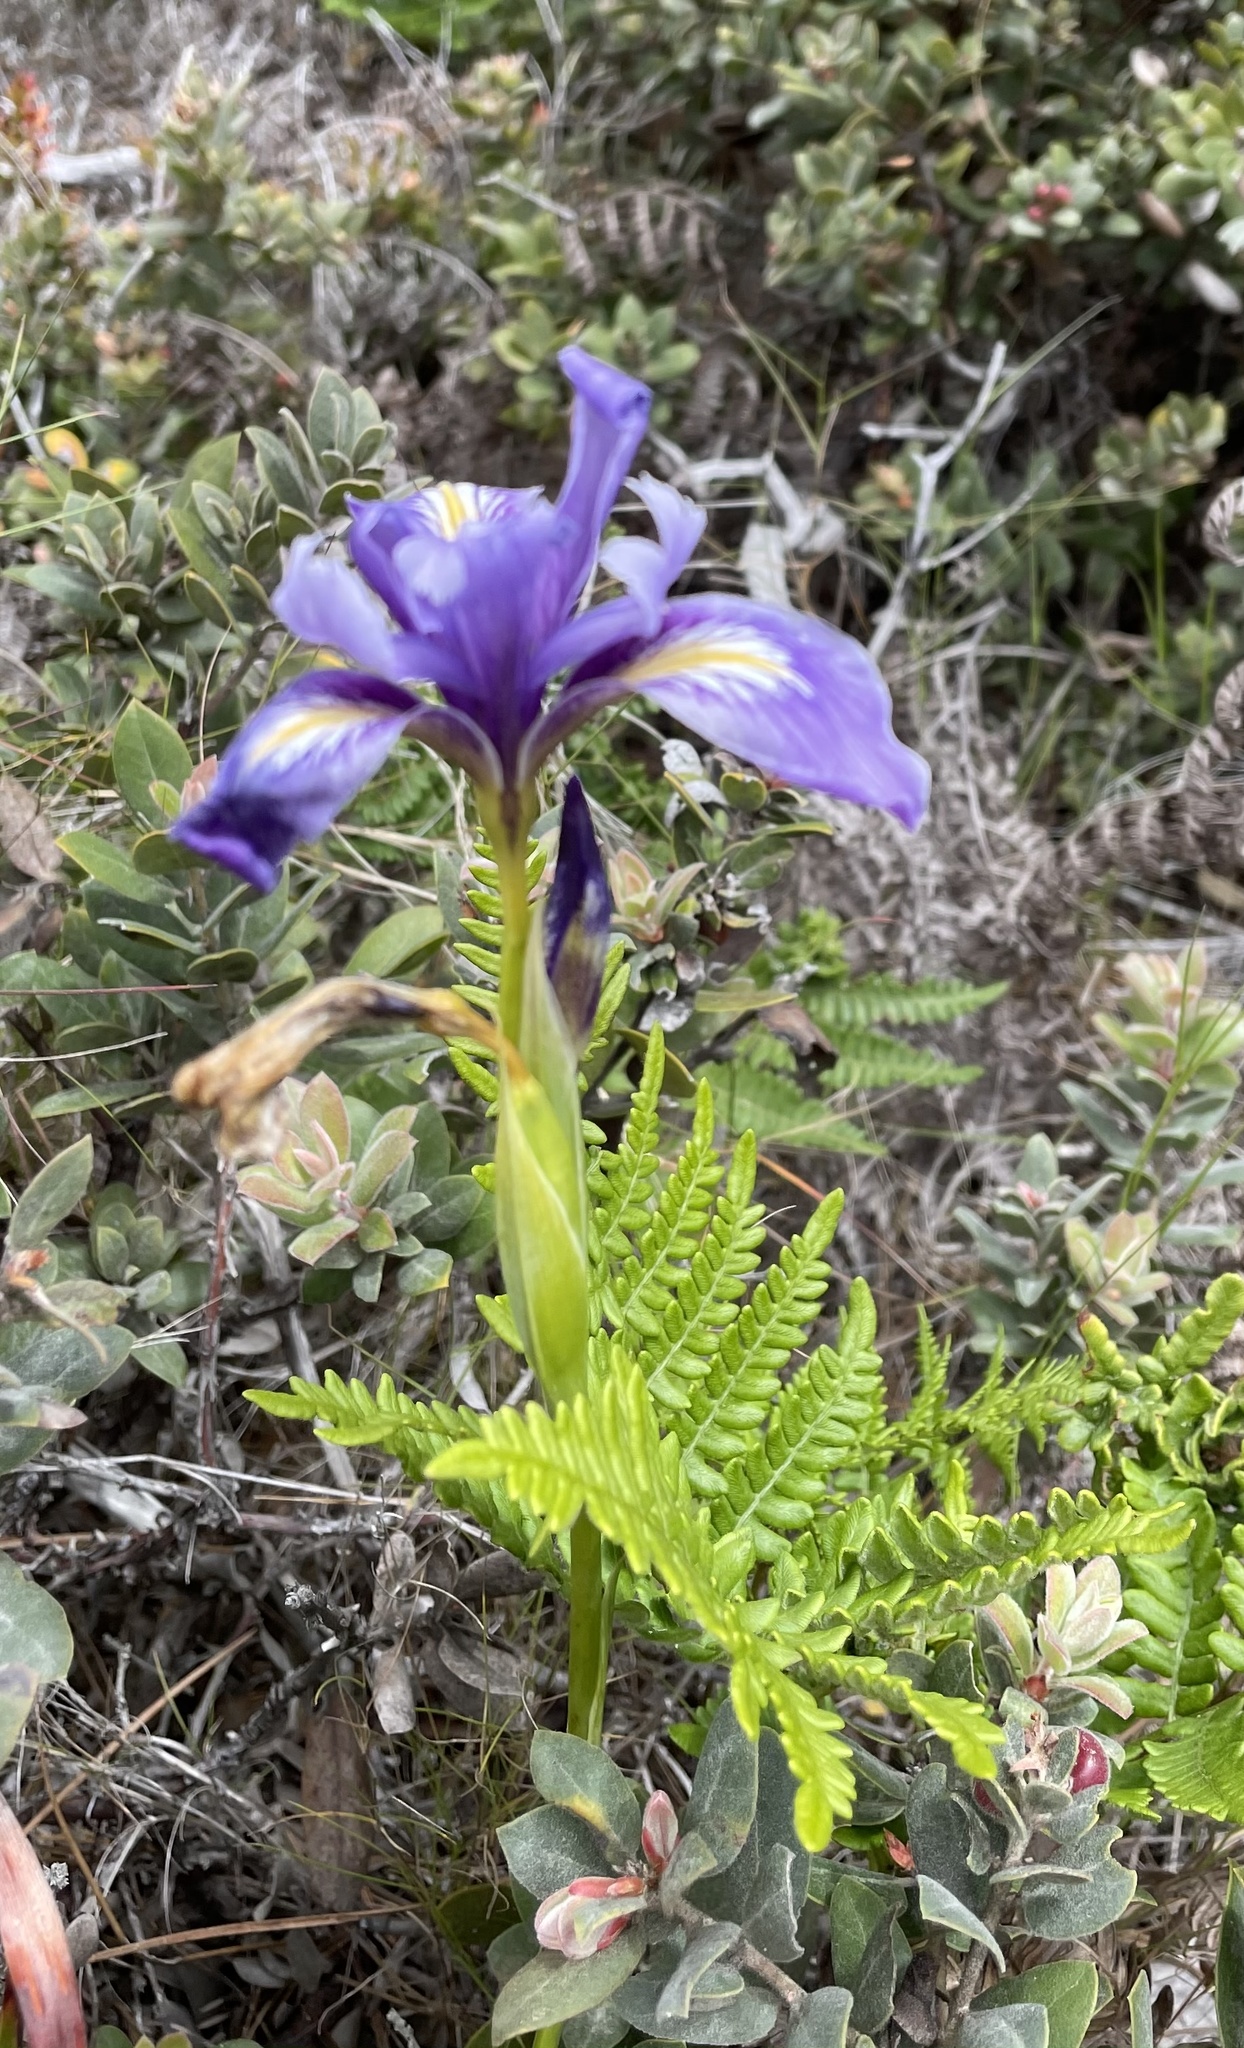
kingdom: Plantae
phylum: Tracheophyta
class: Liliopsida
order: Asparagales
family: Iridaceae
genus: Iris
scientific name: Iris douglasiana
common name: Marin iris
